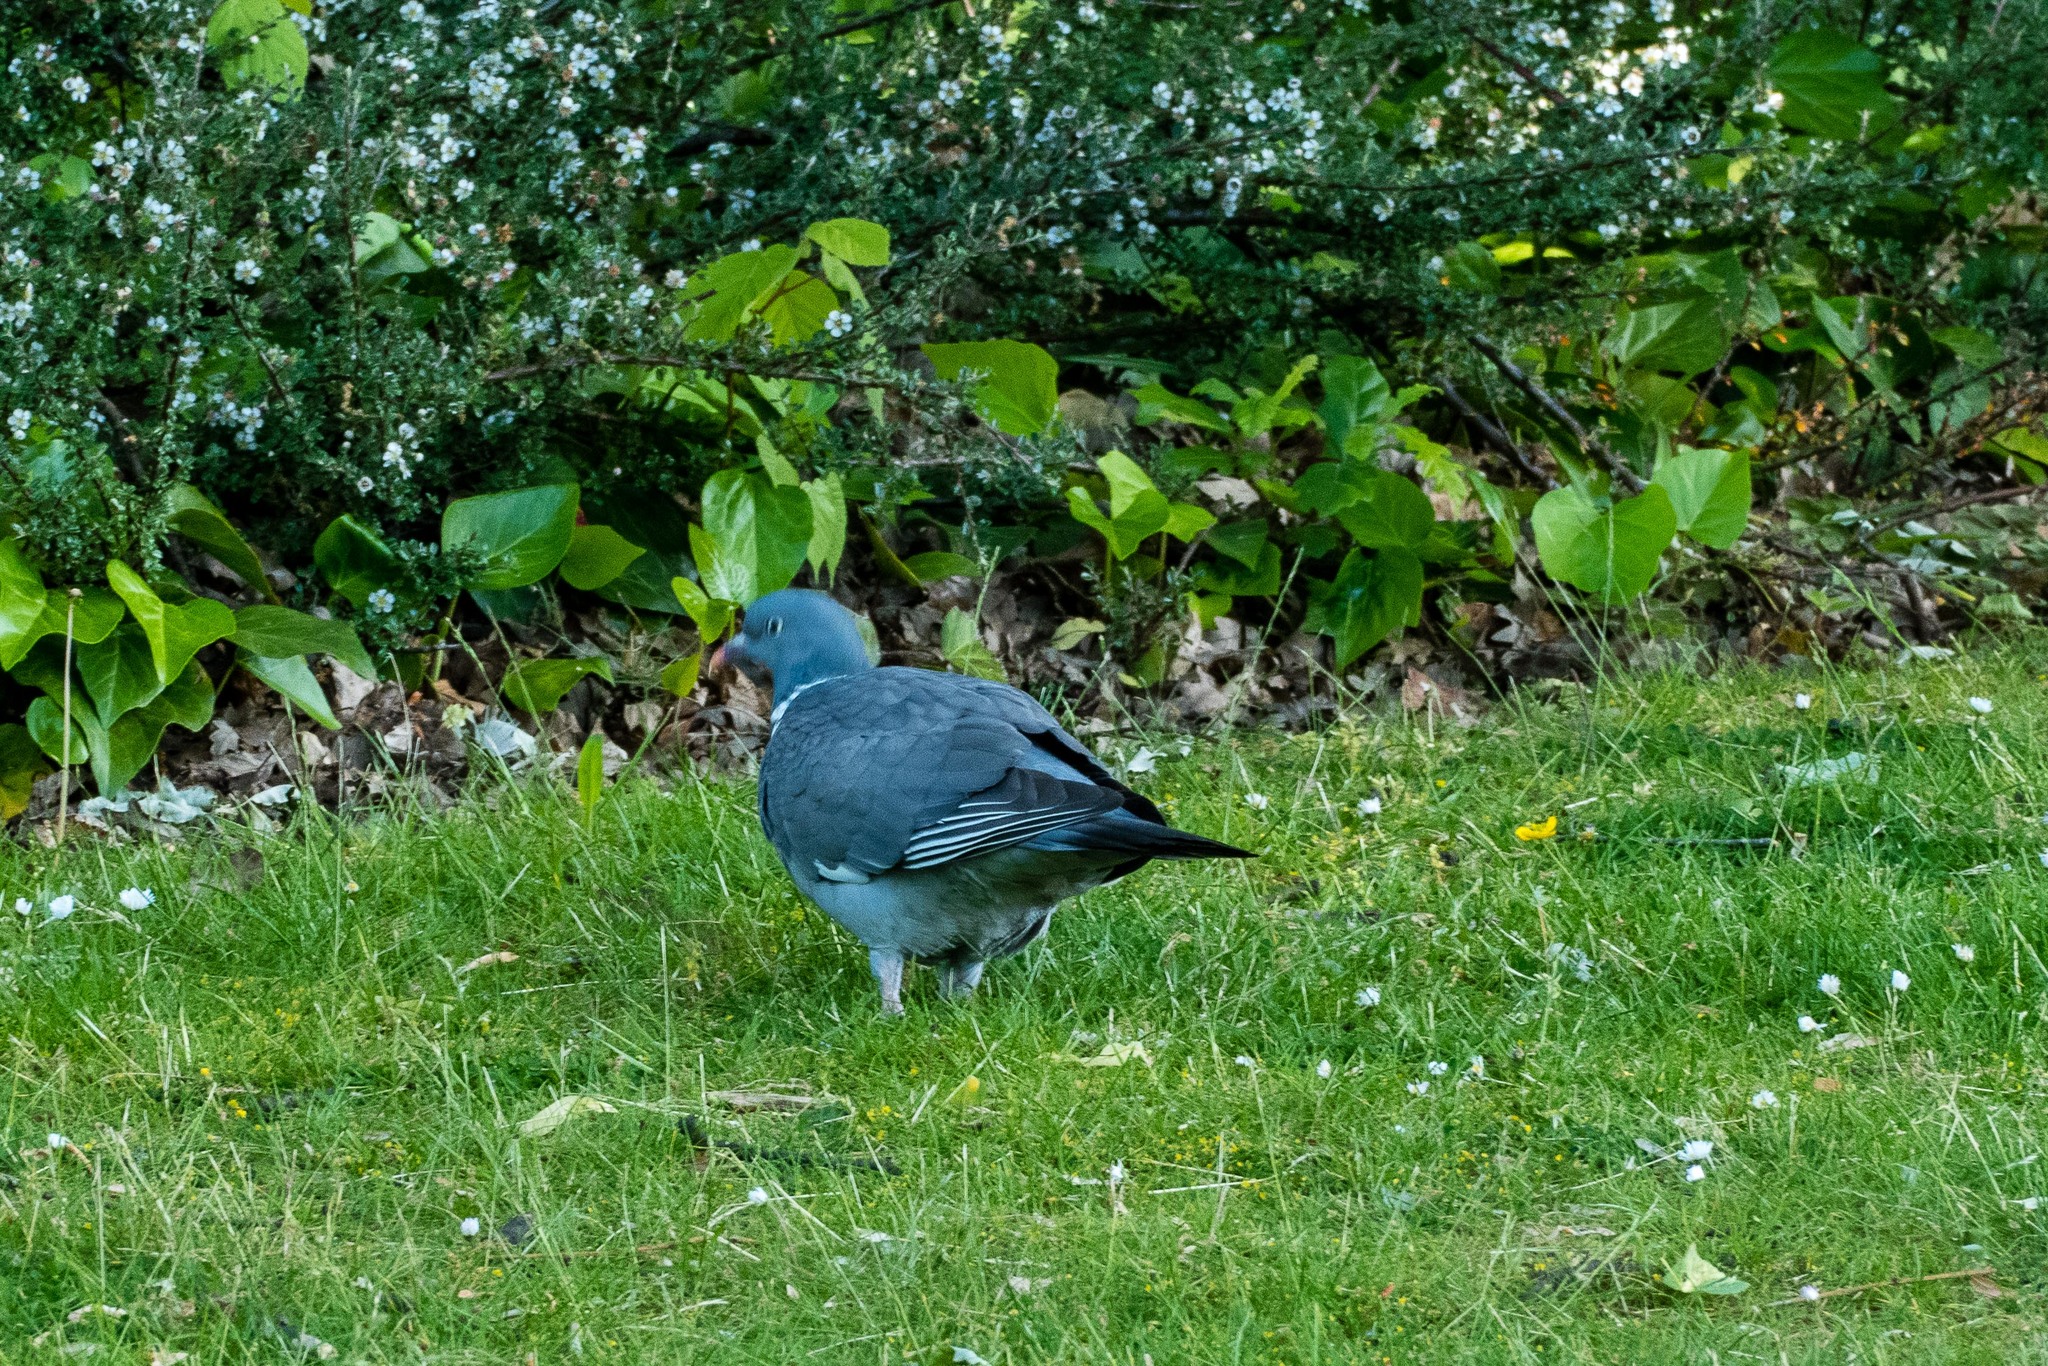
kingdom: Animalia
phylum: Chordata
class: Aves
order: Columbiformes
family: Columbidae
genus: Columba
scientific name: Columba palumbus
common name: Common wood pigeon
